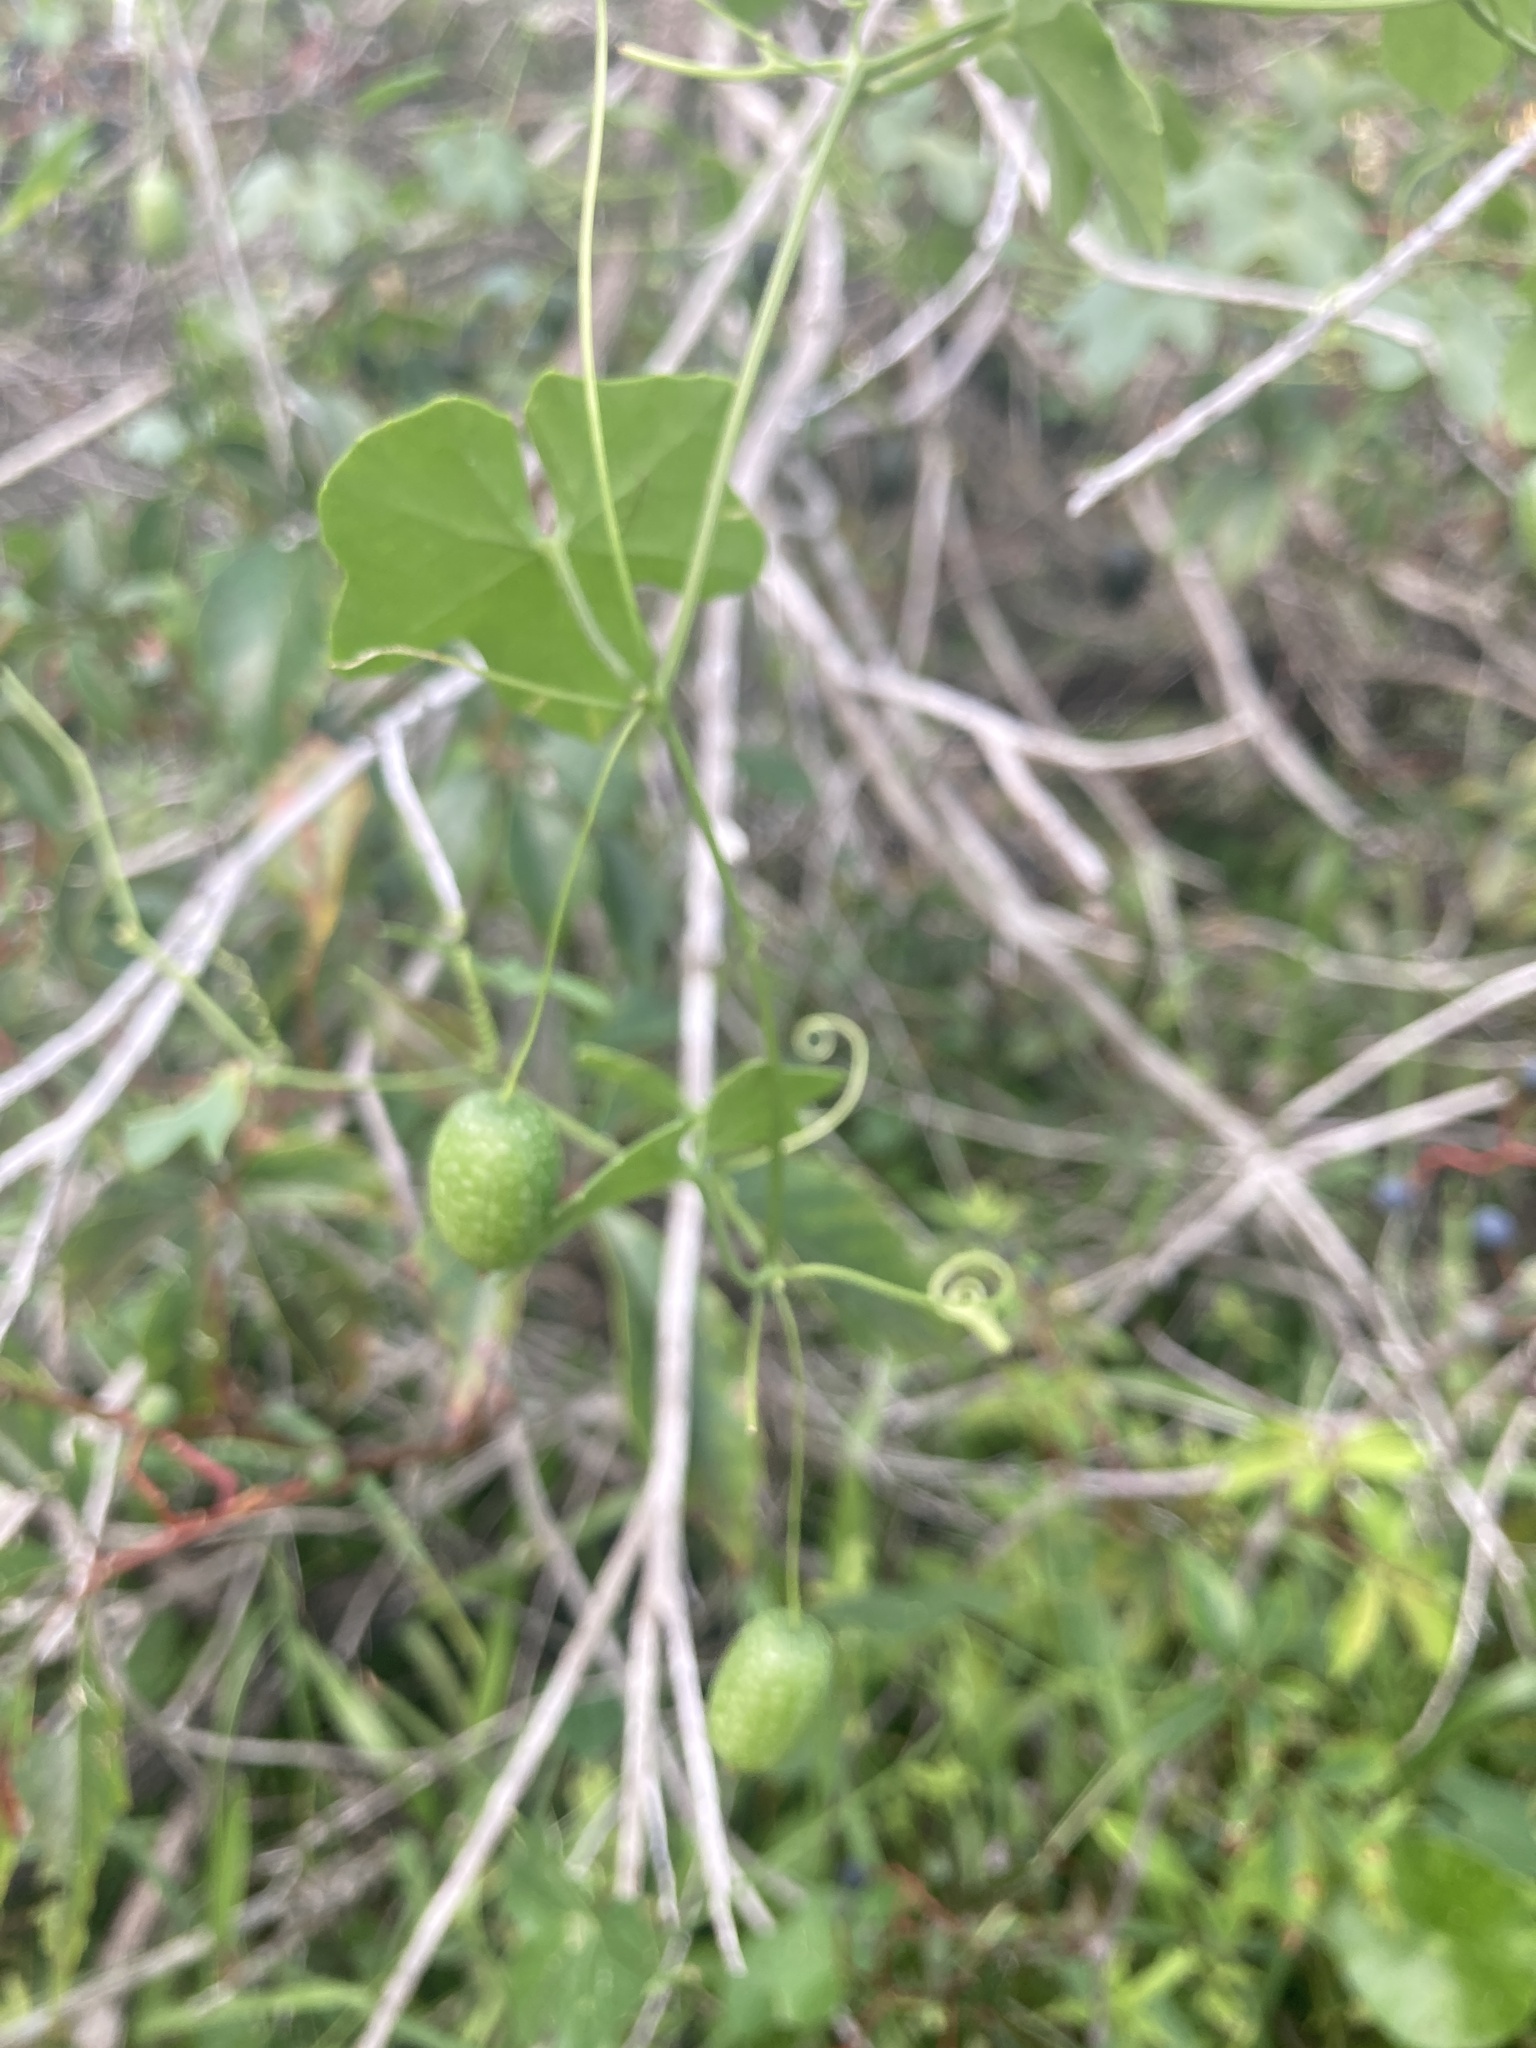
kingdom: Plantae
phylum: Tracheophyta
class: Magnoliopsida
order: Cucurbitales
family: Cucurbitaceae
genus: Melothria
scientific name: Melothria pendula
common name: Creeping-cucumber
